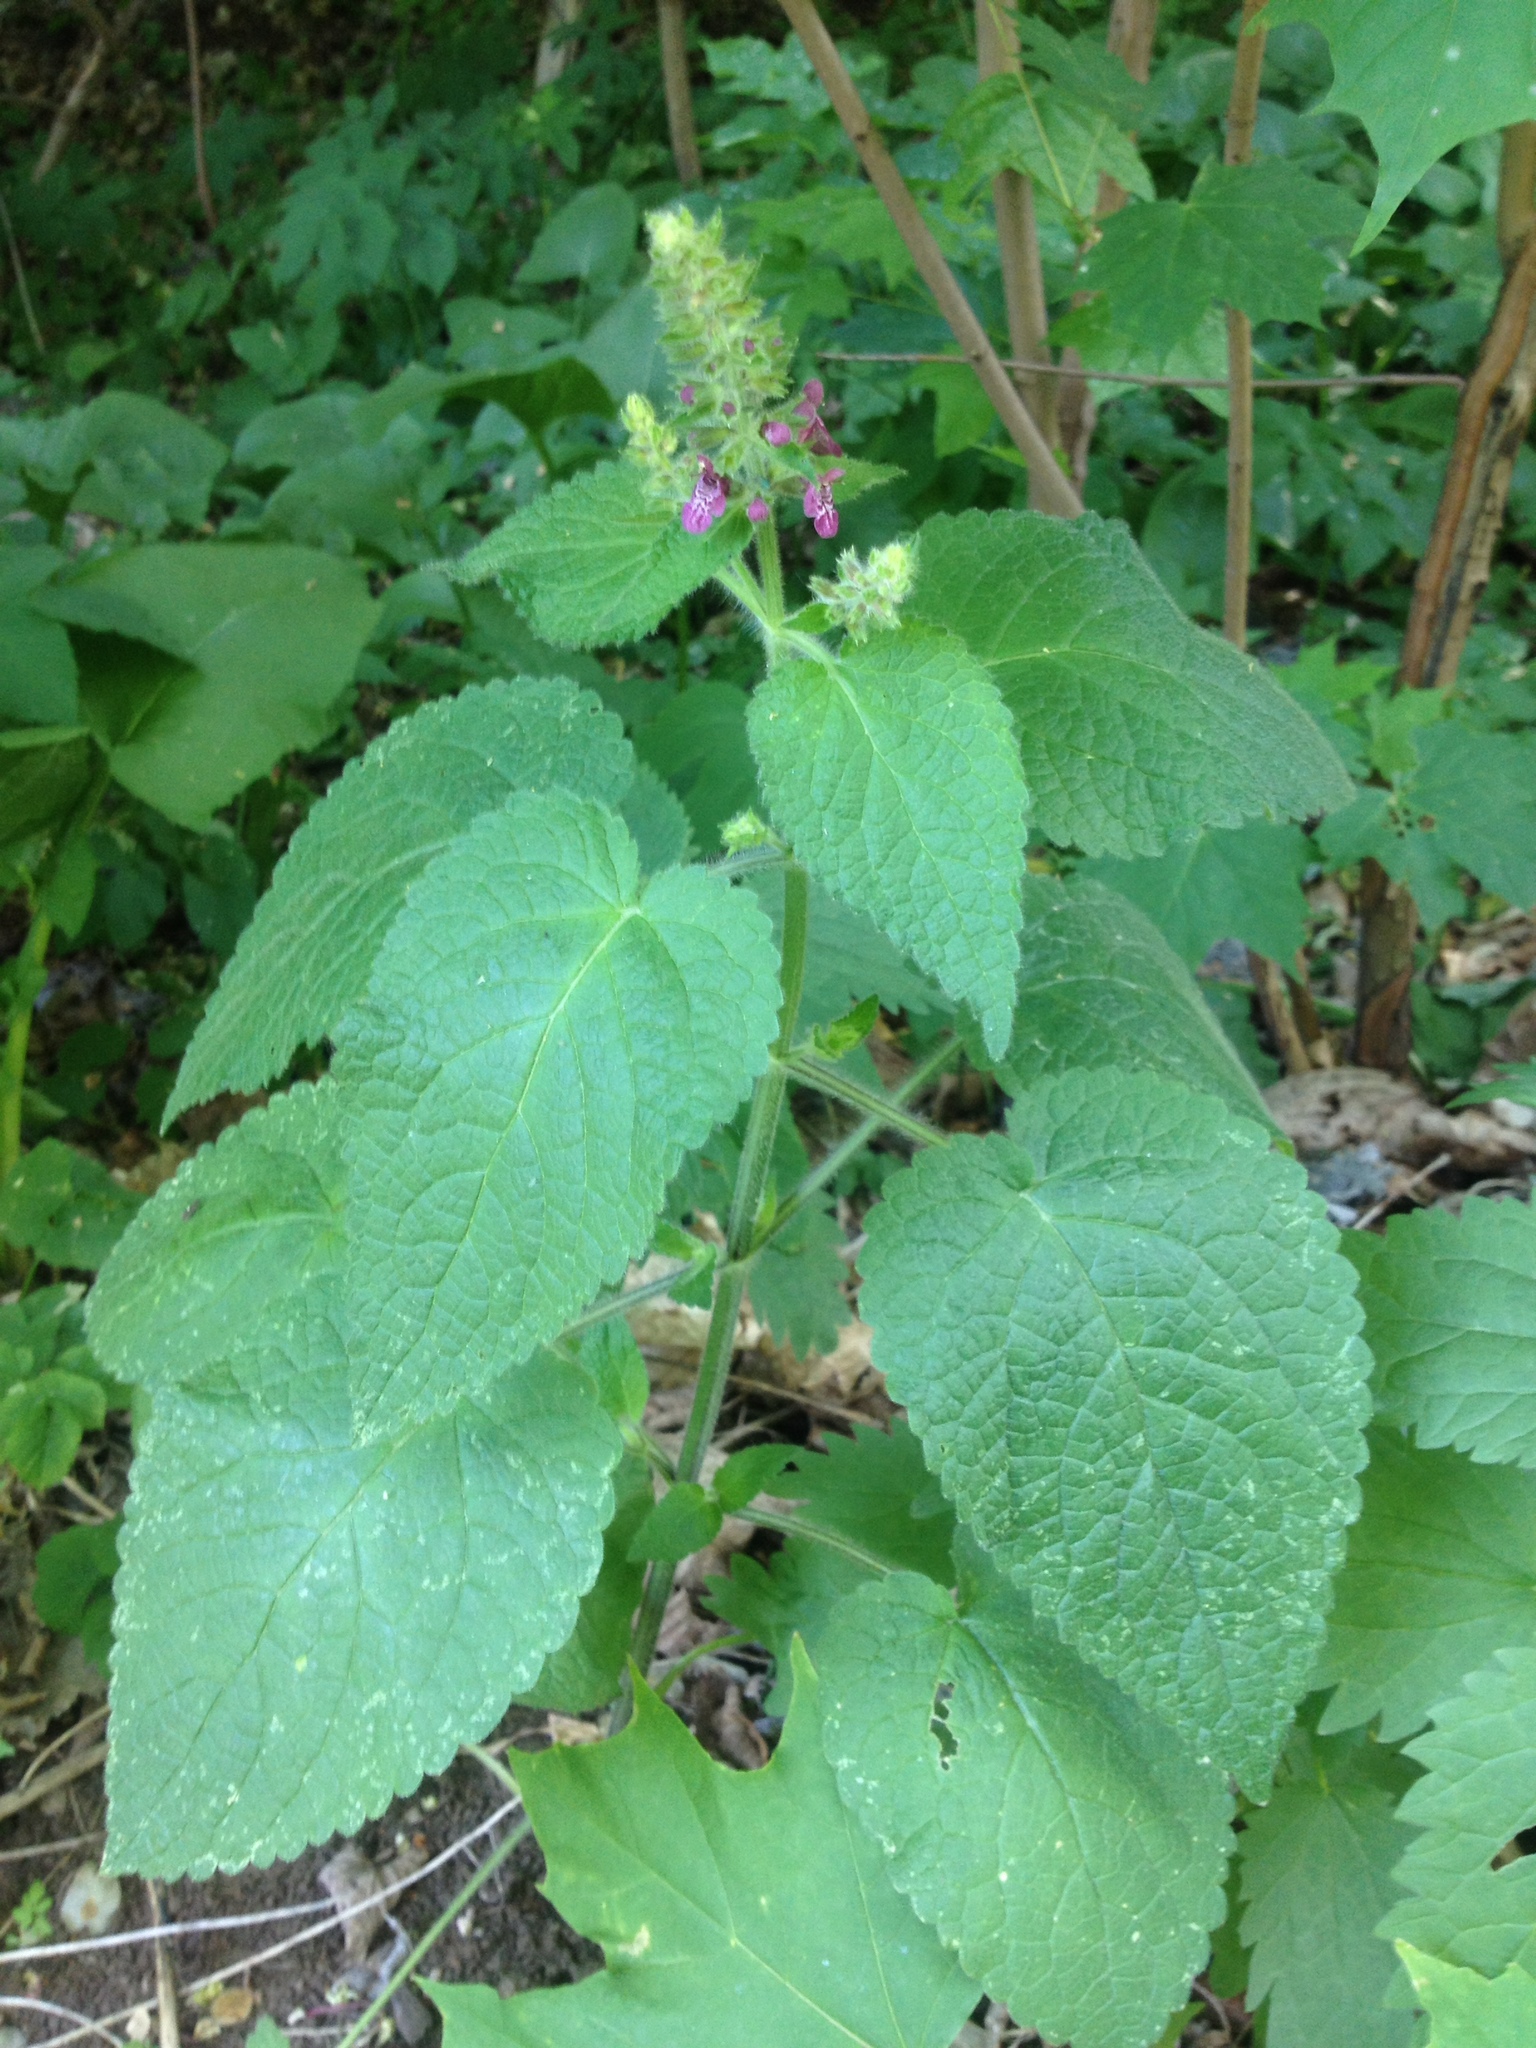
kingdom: Plantae
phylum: Tracheophyta
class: Magnoliopsida
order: Lamiales
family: Lamiaceae
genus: Stachys
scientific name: Stachys sylvatica
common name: Hedge woundwort
